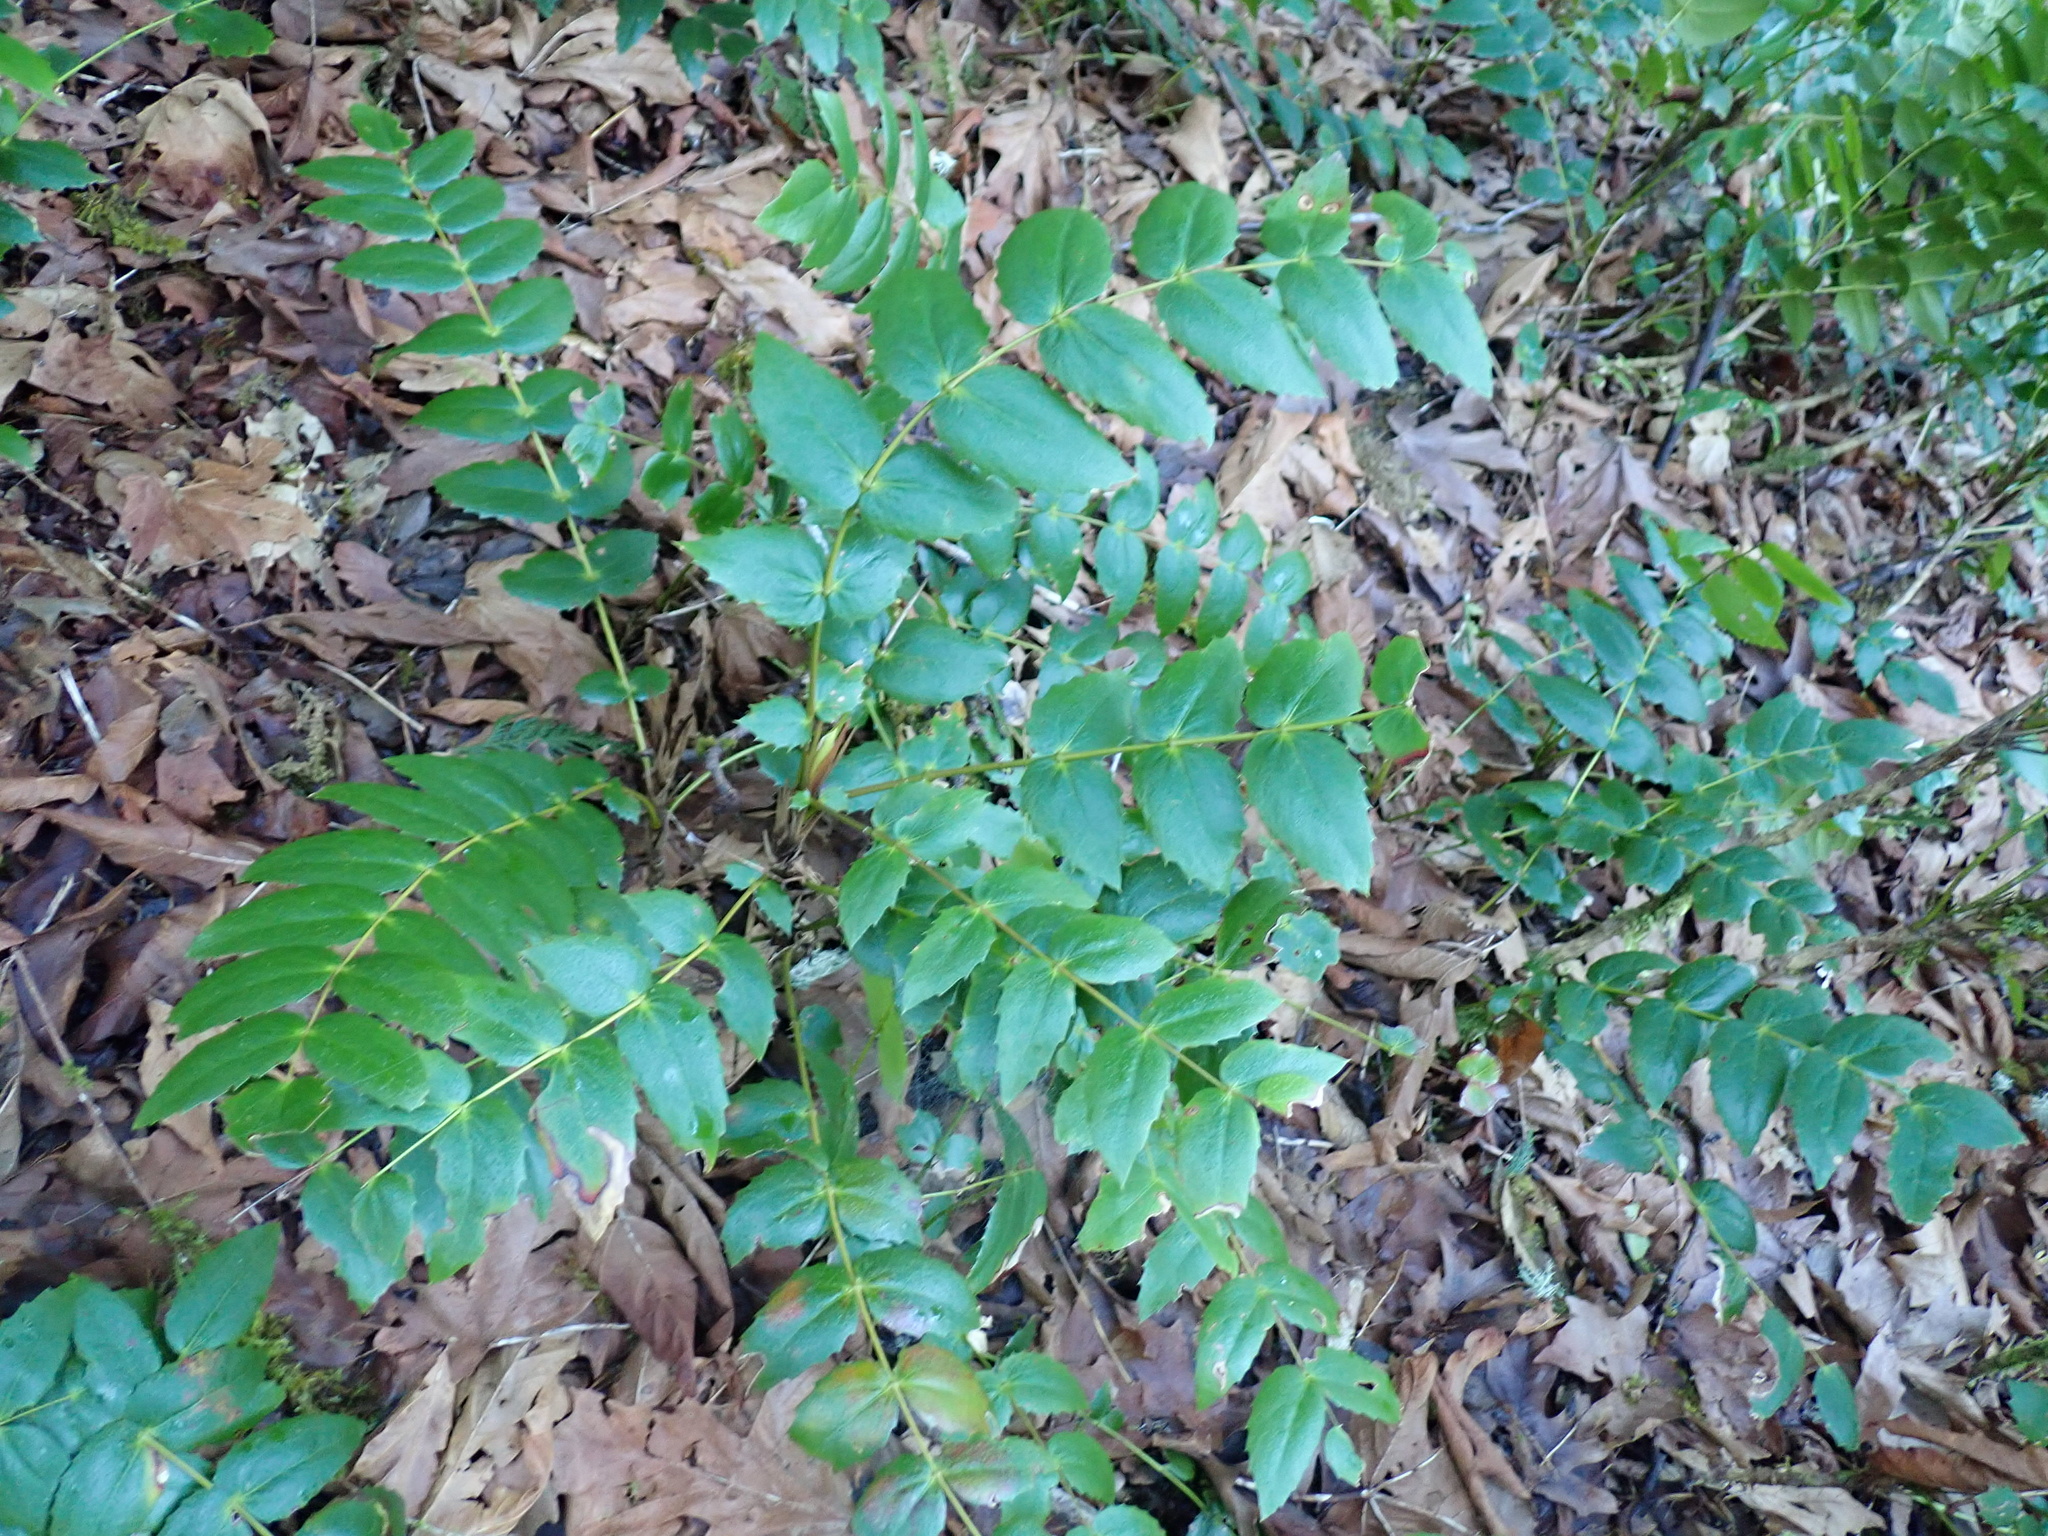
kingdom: Plantae
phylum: Tracheophyta
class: Magnoliopsida
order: Ranunculales
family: Berberidaceae
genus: Mahonia
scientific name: Mahonia nervosa
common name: Cascade oregon-grape
